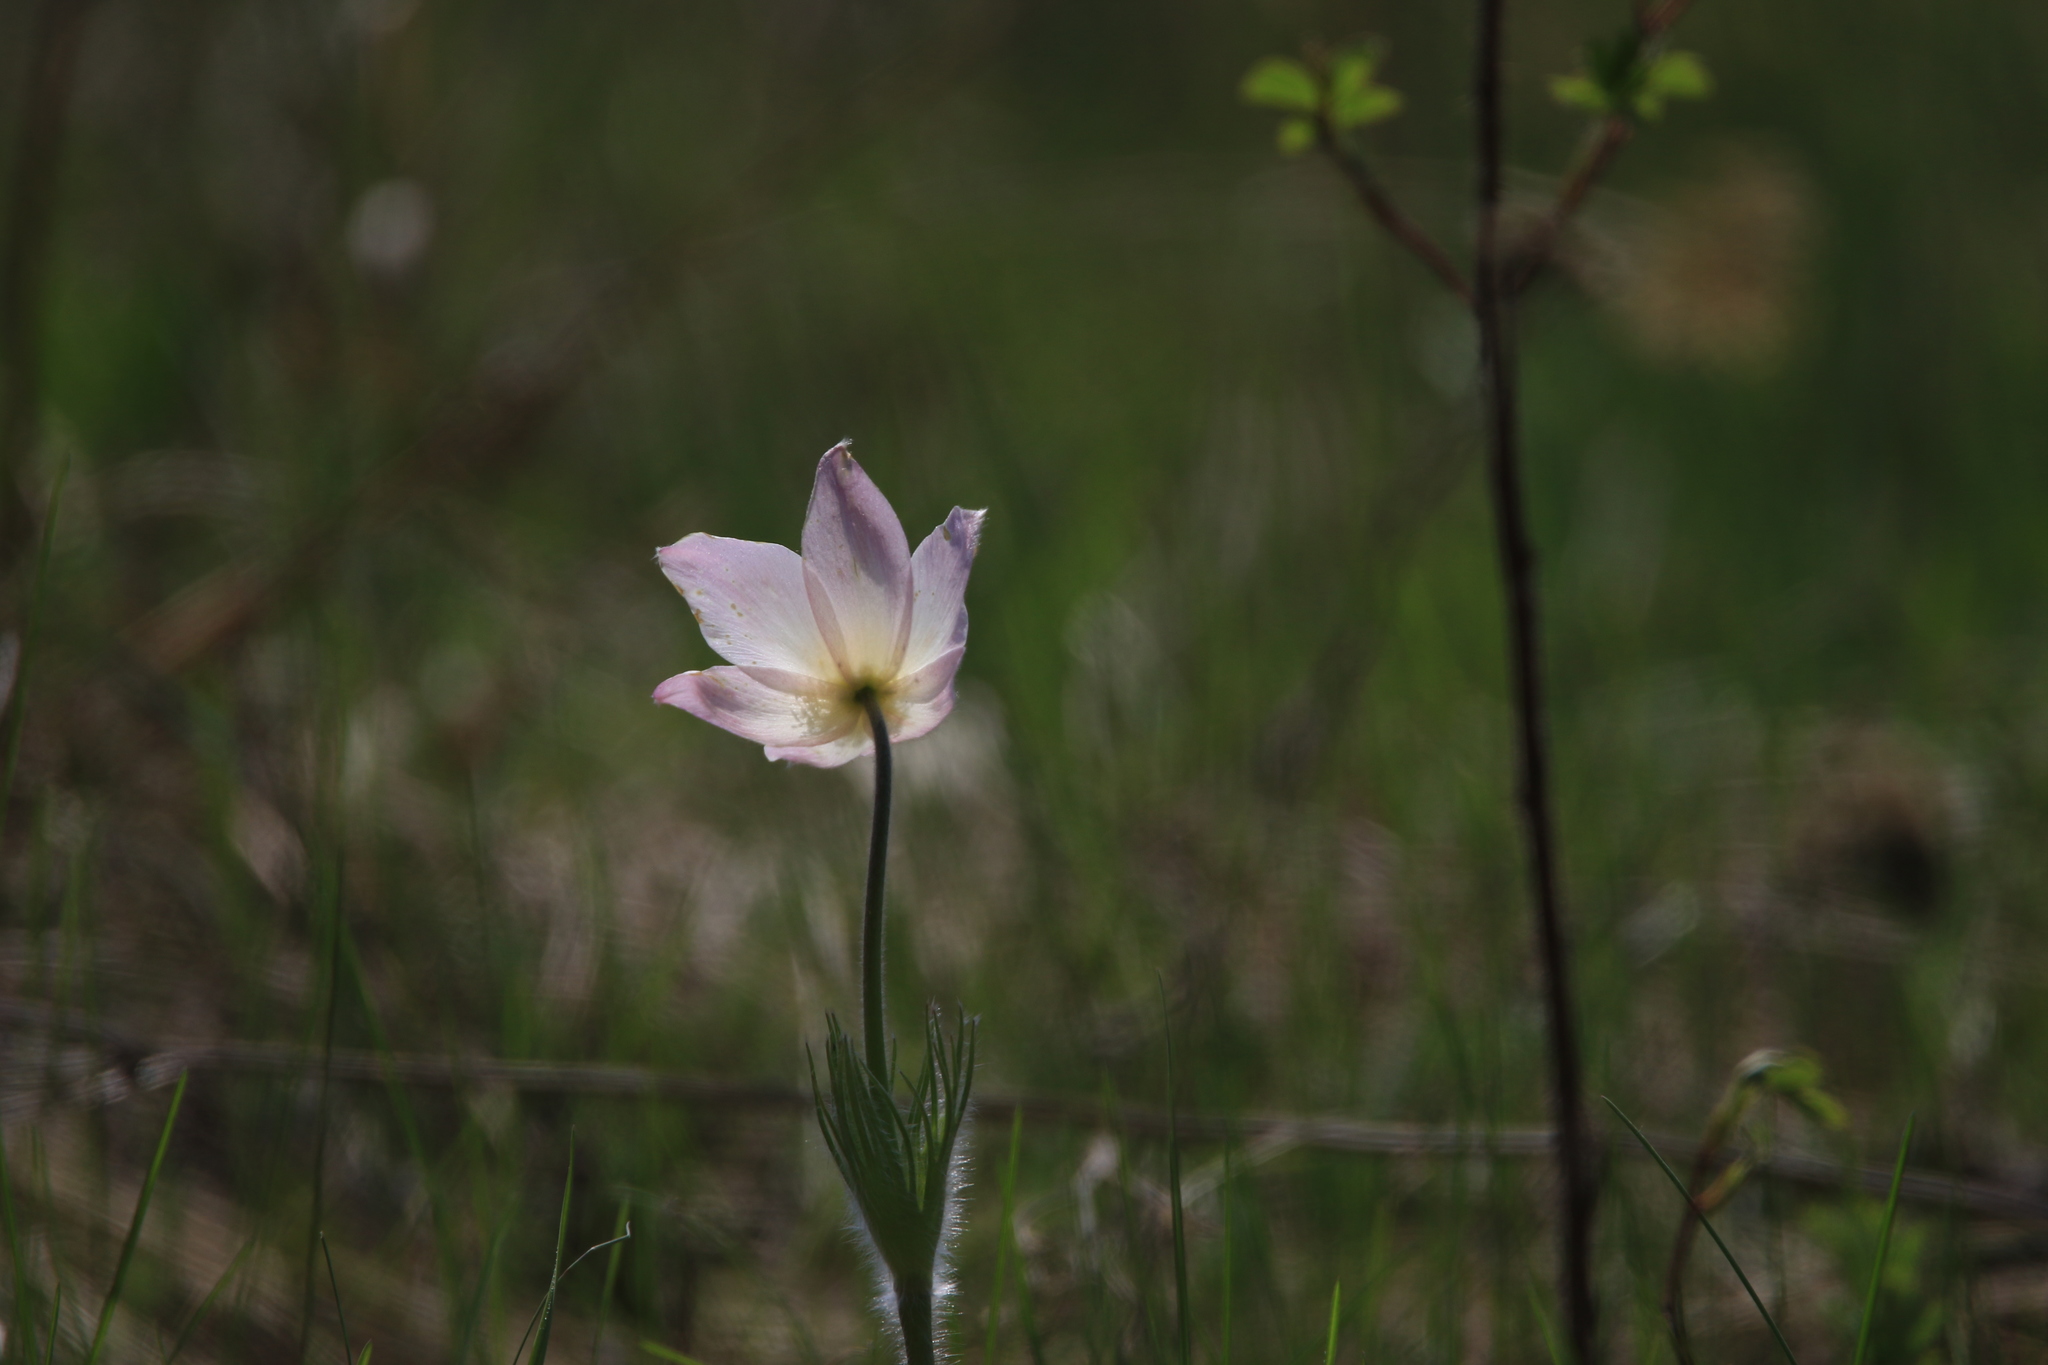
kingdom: Plantae
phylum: Tracheophyta
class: Magnoliopsida
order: Ranunculales
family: Ranunculaceae
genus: Pulsatilla
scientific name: Pulsatilla patens
